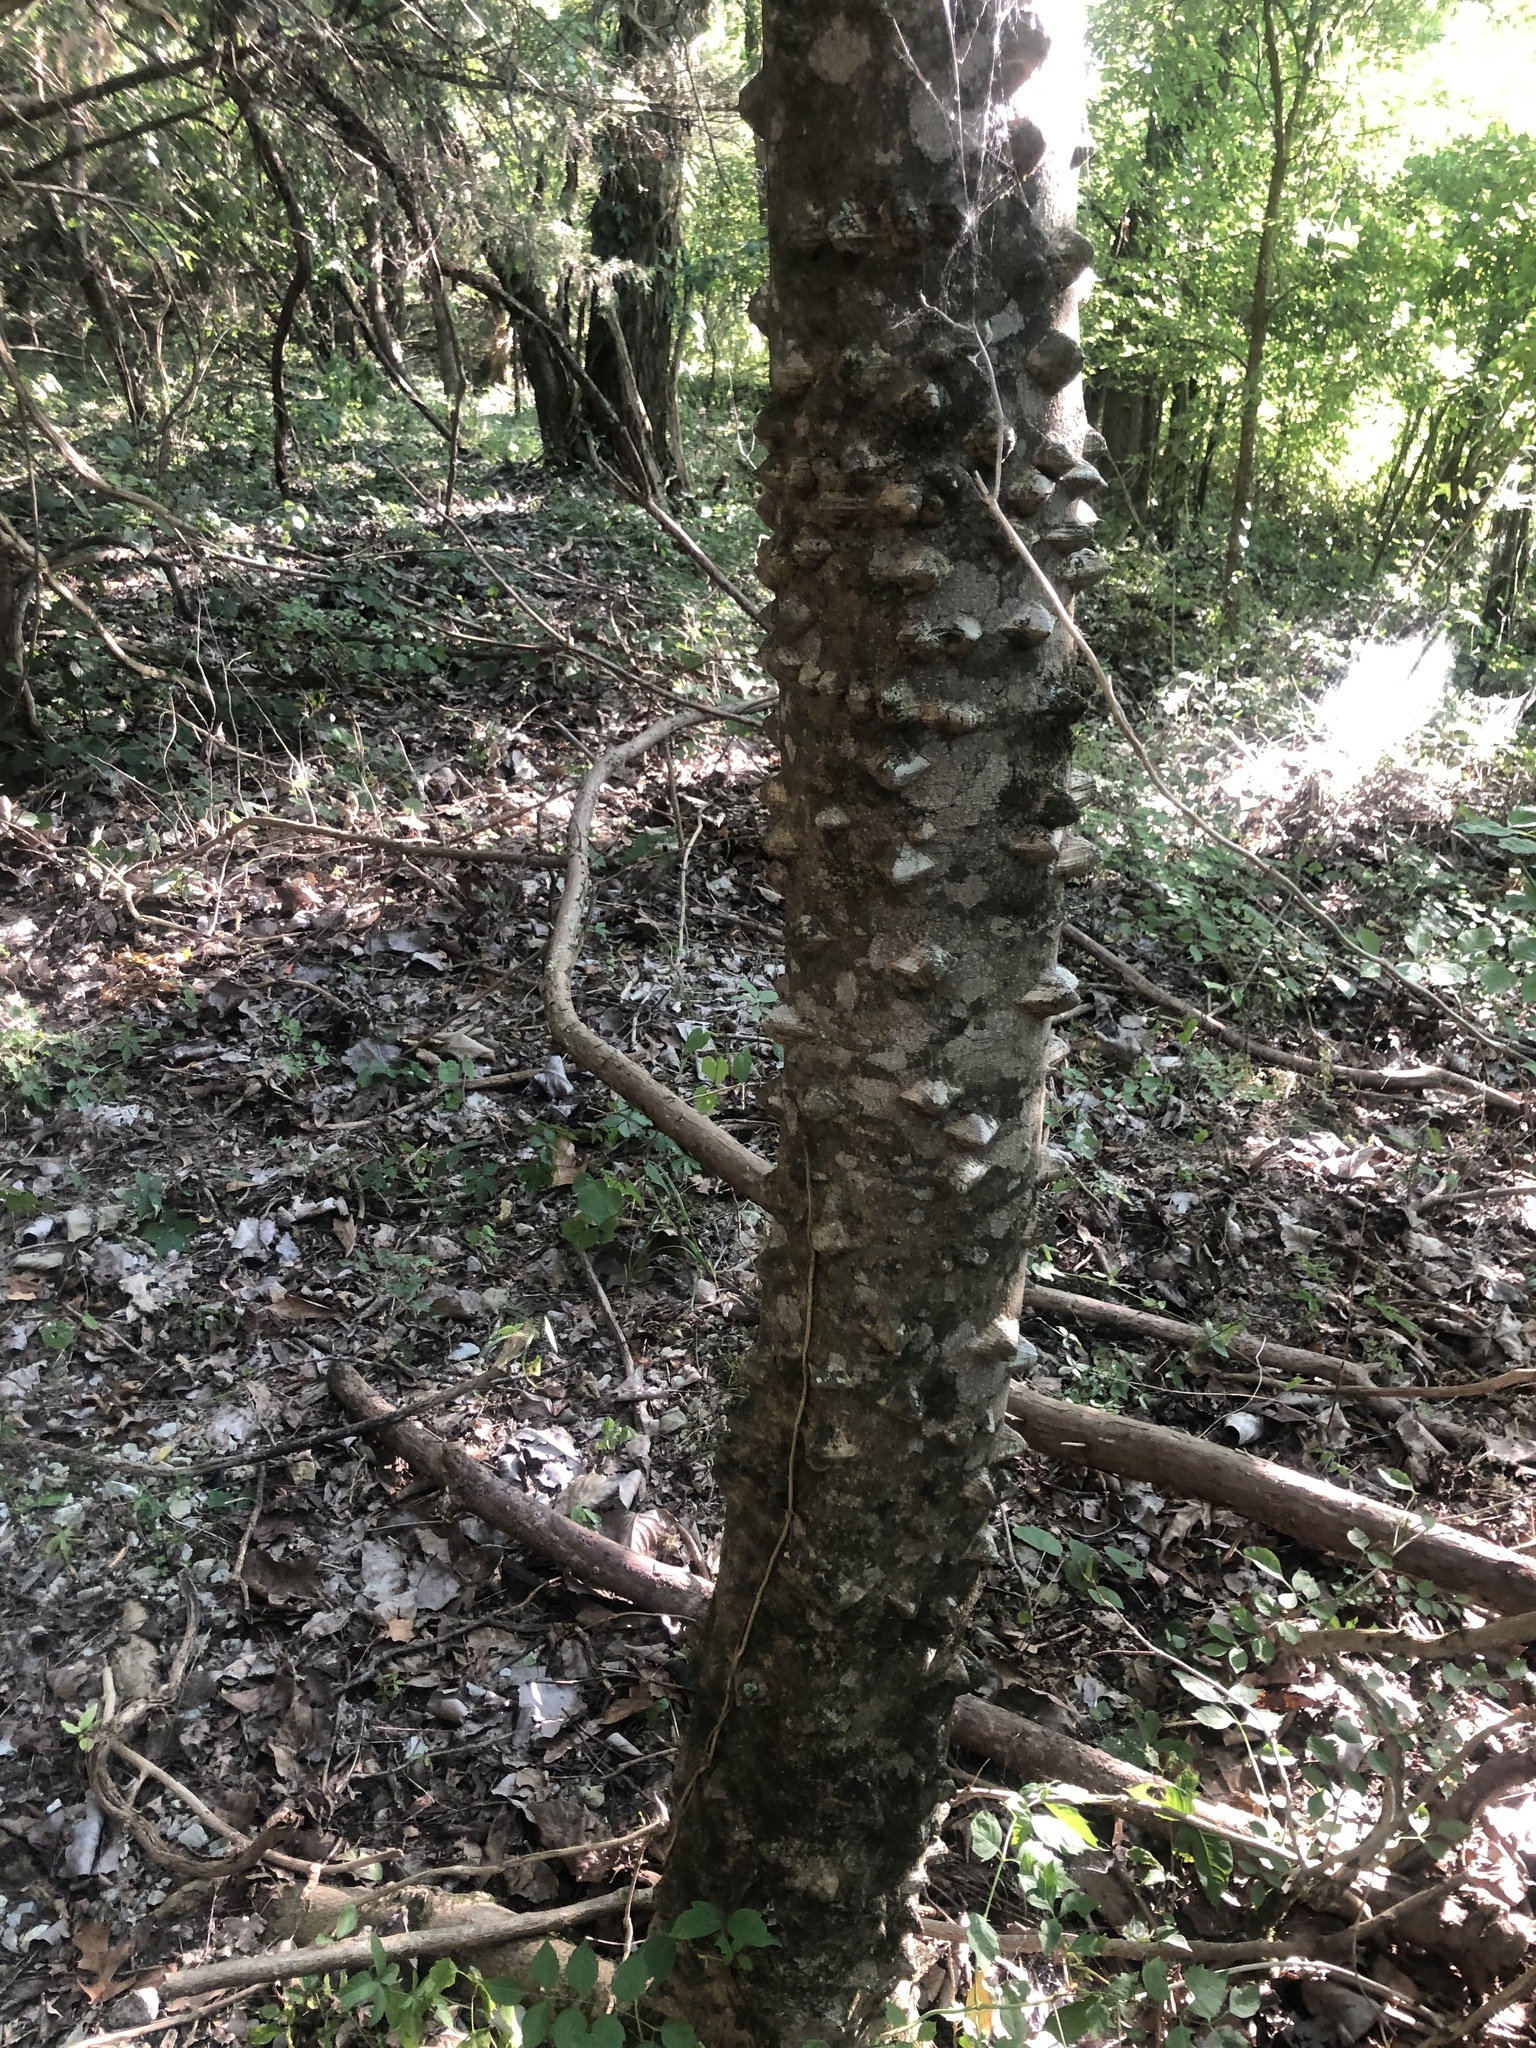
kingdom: Plantae
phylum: Tracheophyta
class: Magnoliopsida
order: Sapindales
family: Rutaceae
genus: Zanthoxylum
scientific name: Zanthoxylum clava-herculis
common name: Hercules'-club
